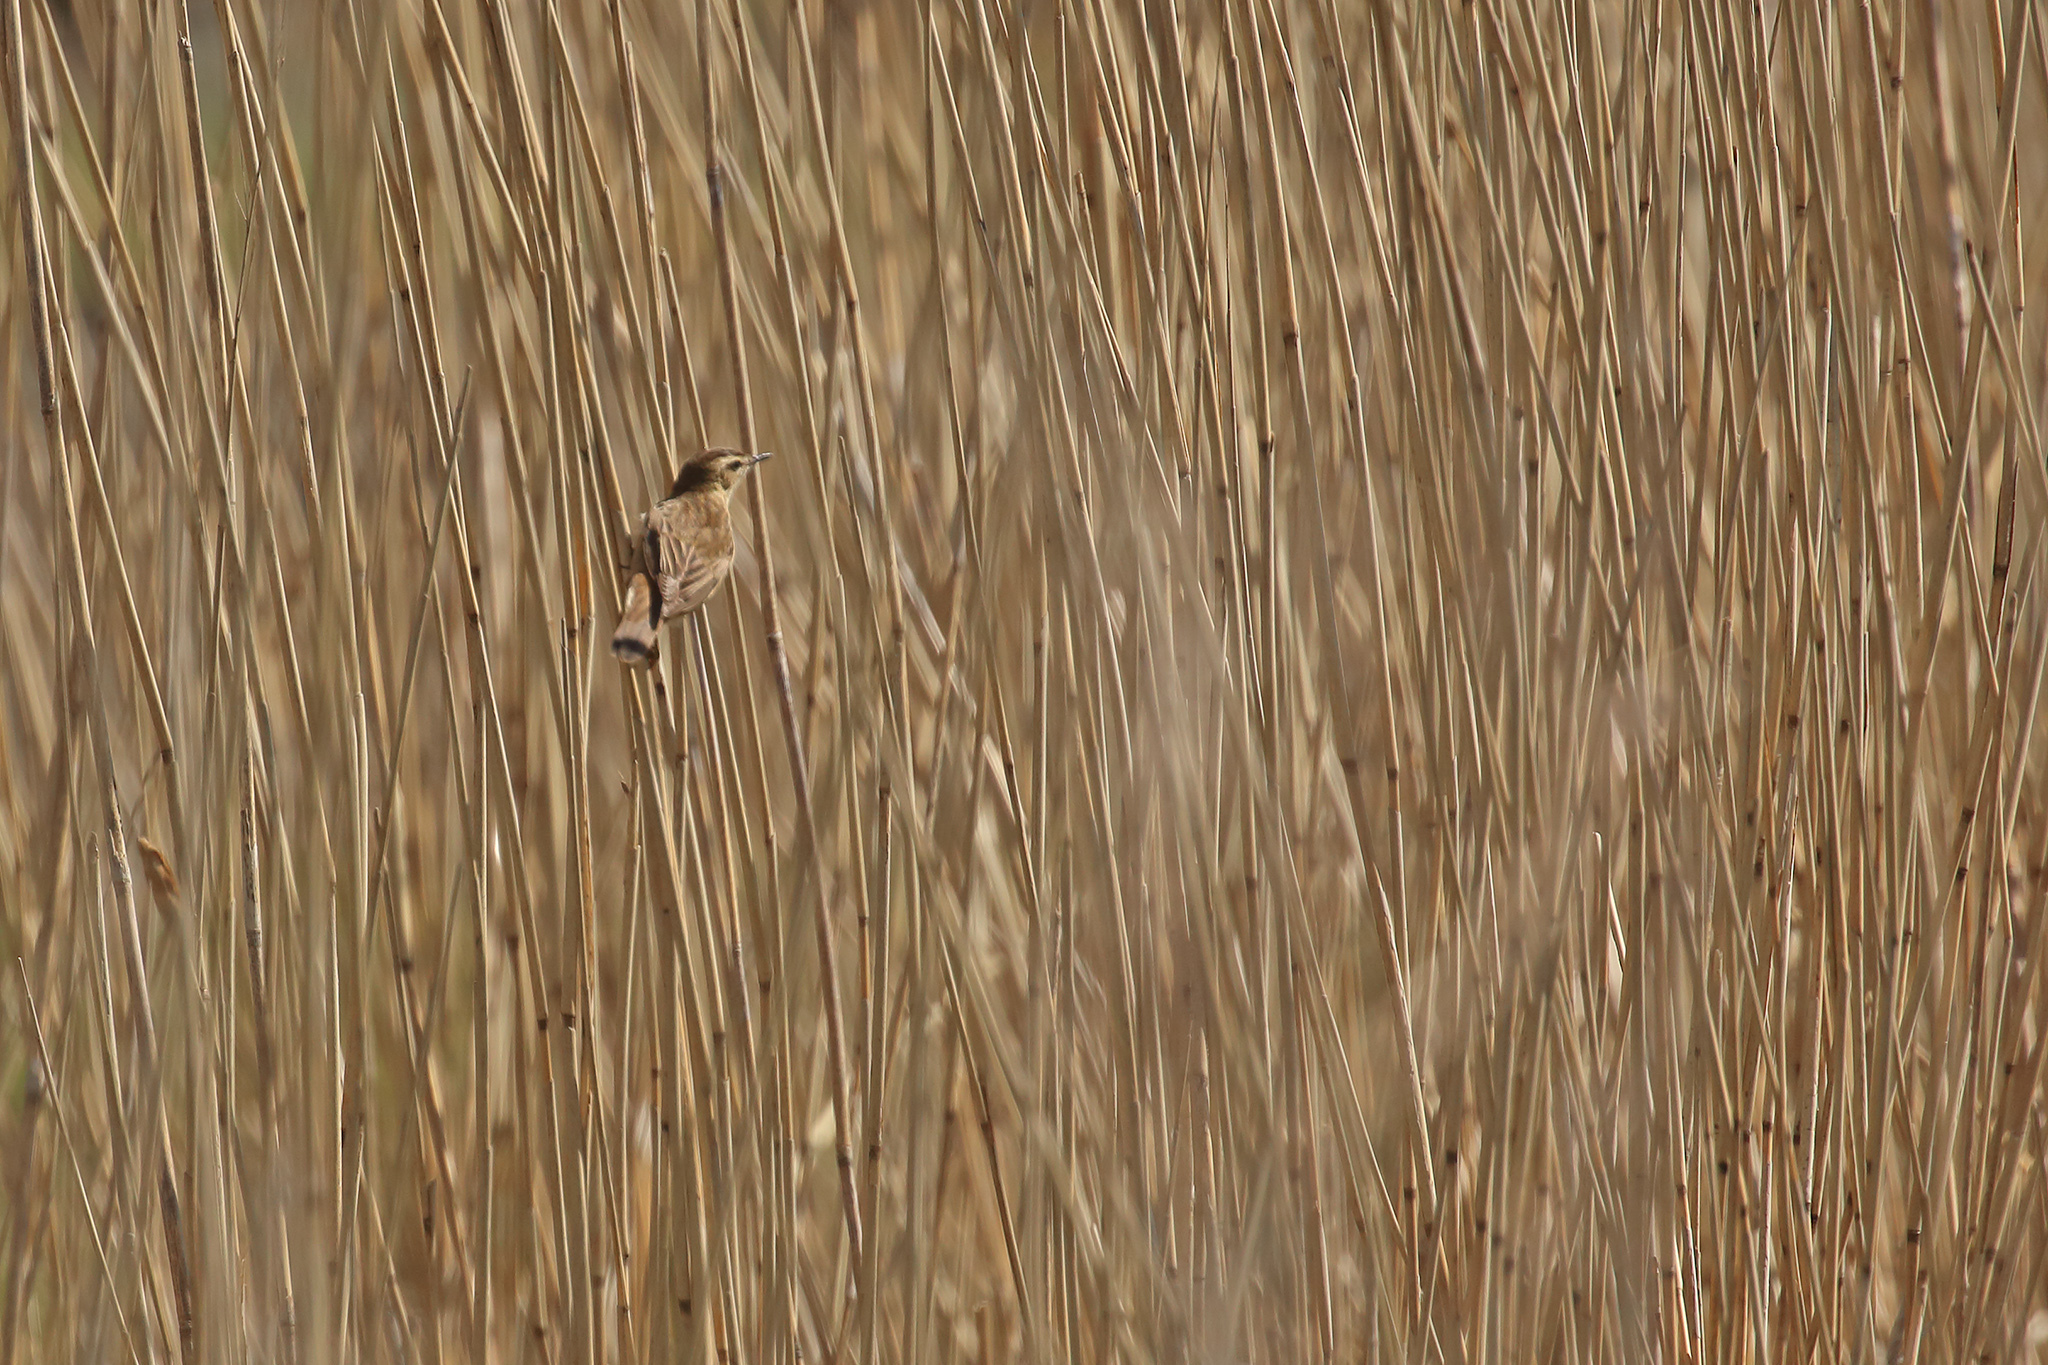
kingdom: Animalia
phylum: Chordata
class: Aves
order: Passeriformes
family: Acrocephalidae
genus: Acrocephalus
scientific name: Acrocephalus schoenobaenus
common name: Sedge warbler
